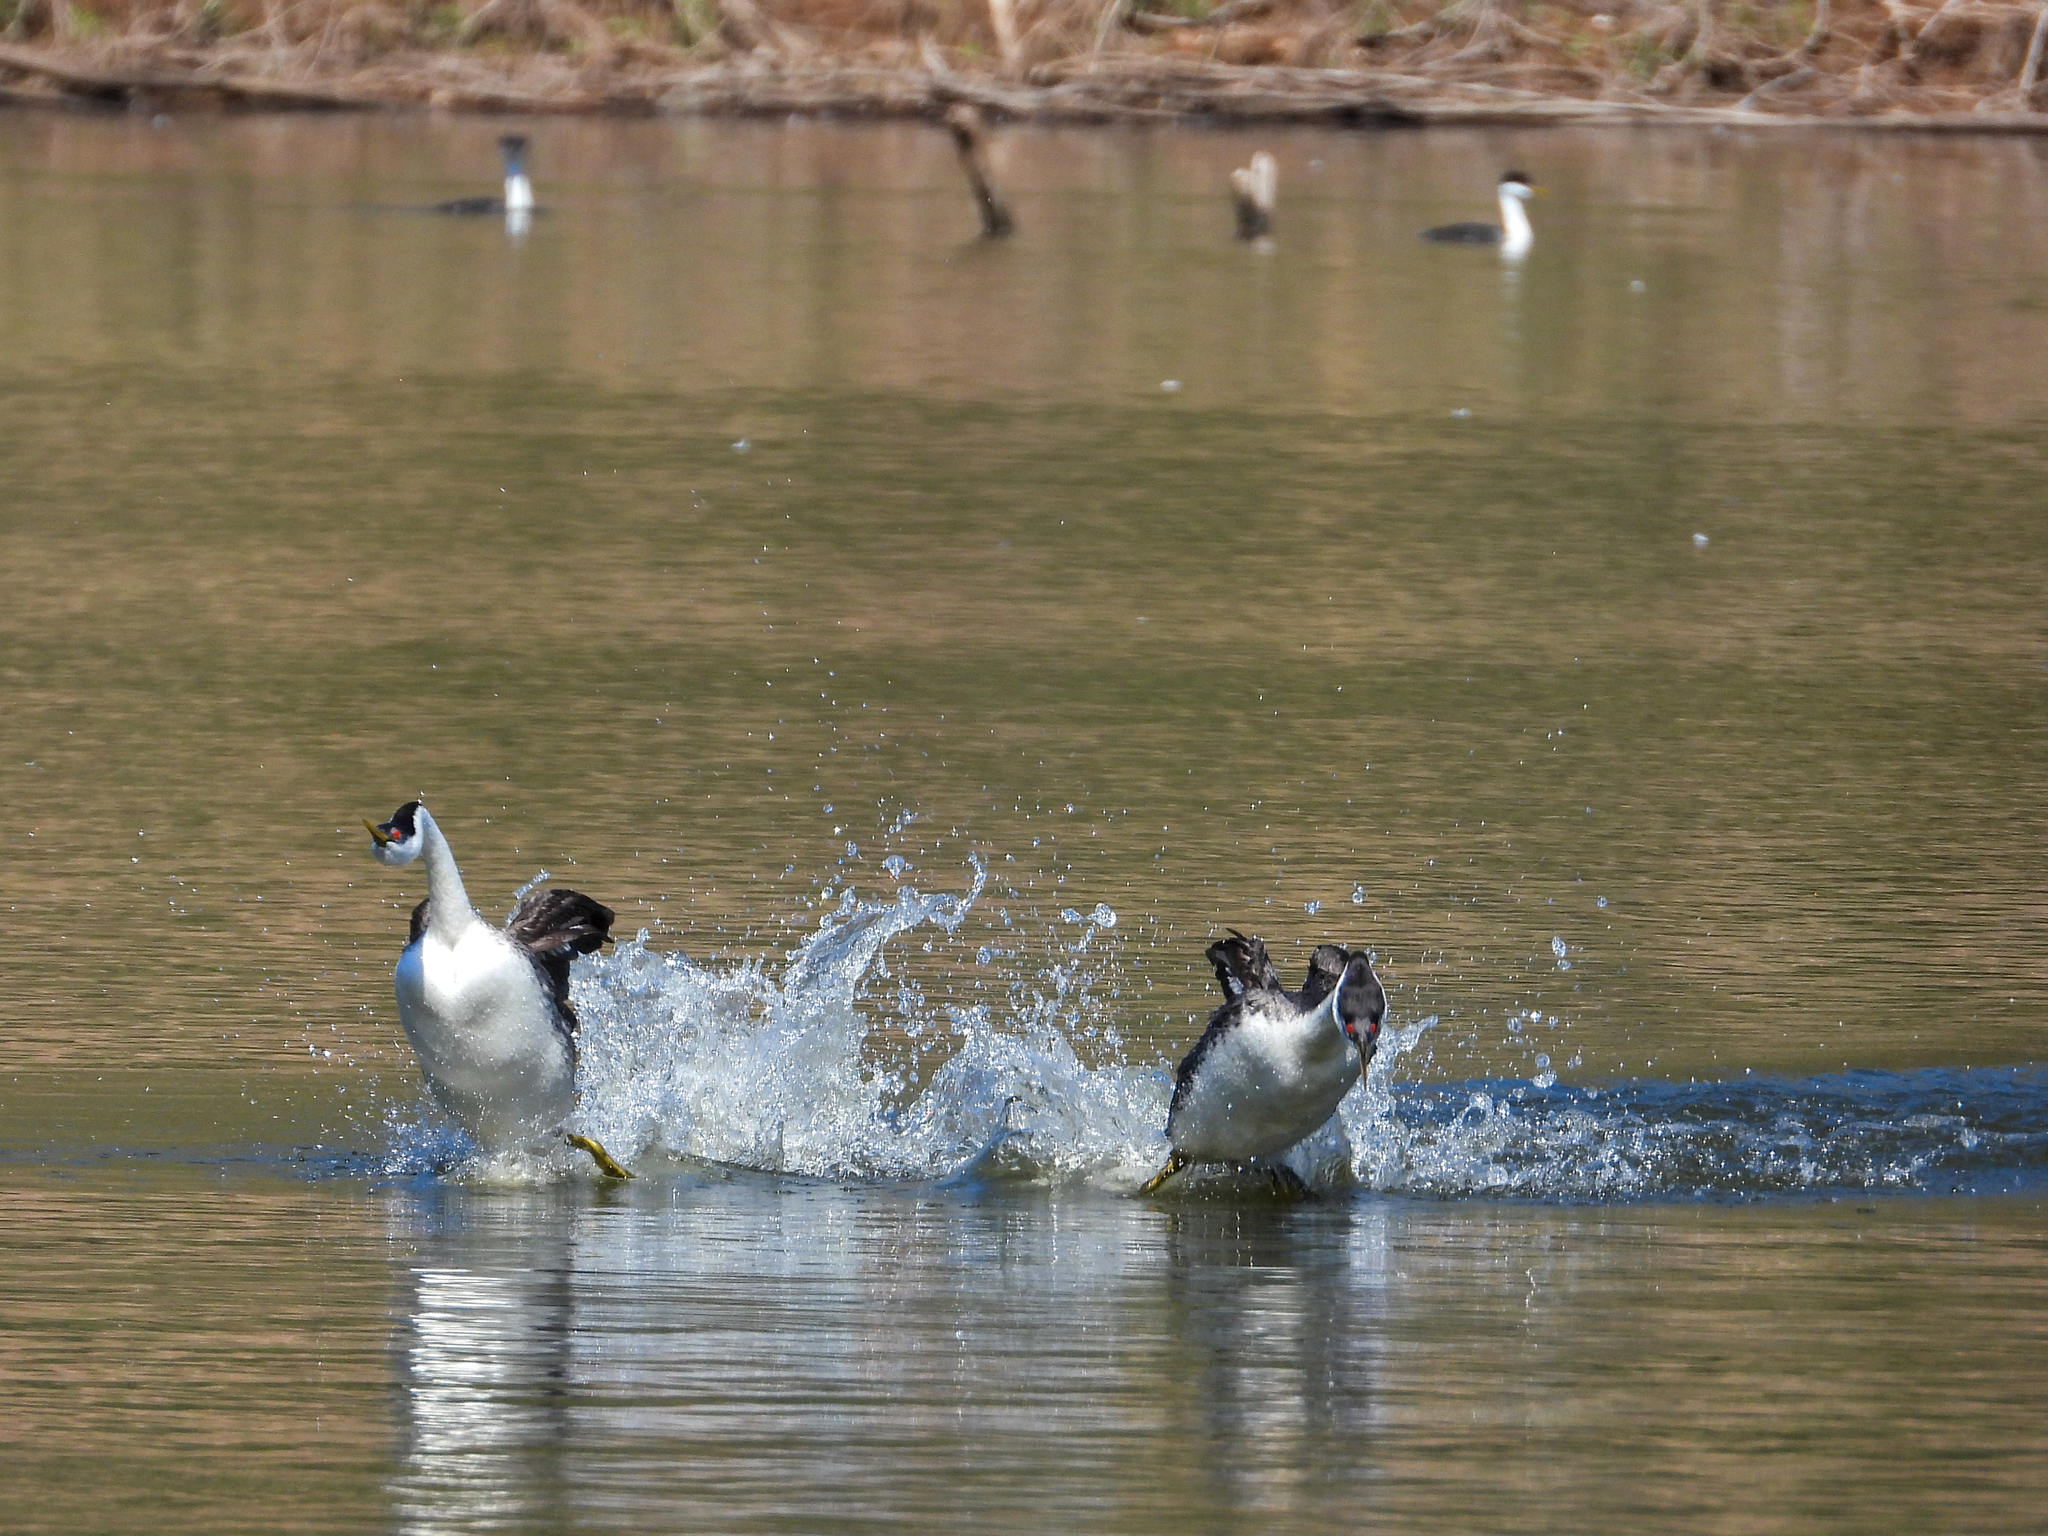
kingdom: Animalia
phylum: Chordata
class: Aves
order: Podicipediformes
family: Podicipedidae
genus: Aechmophorus
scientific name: Aechmophorus occidentalis
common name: Western grebe
